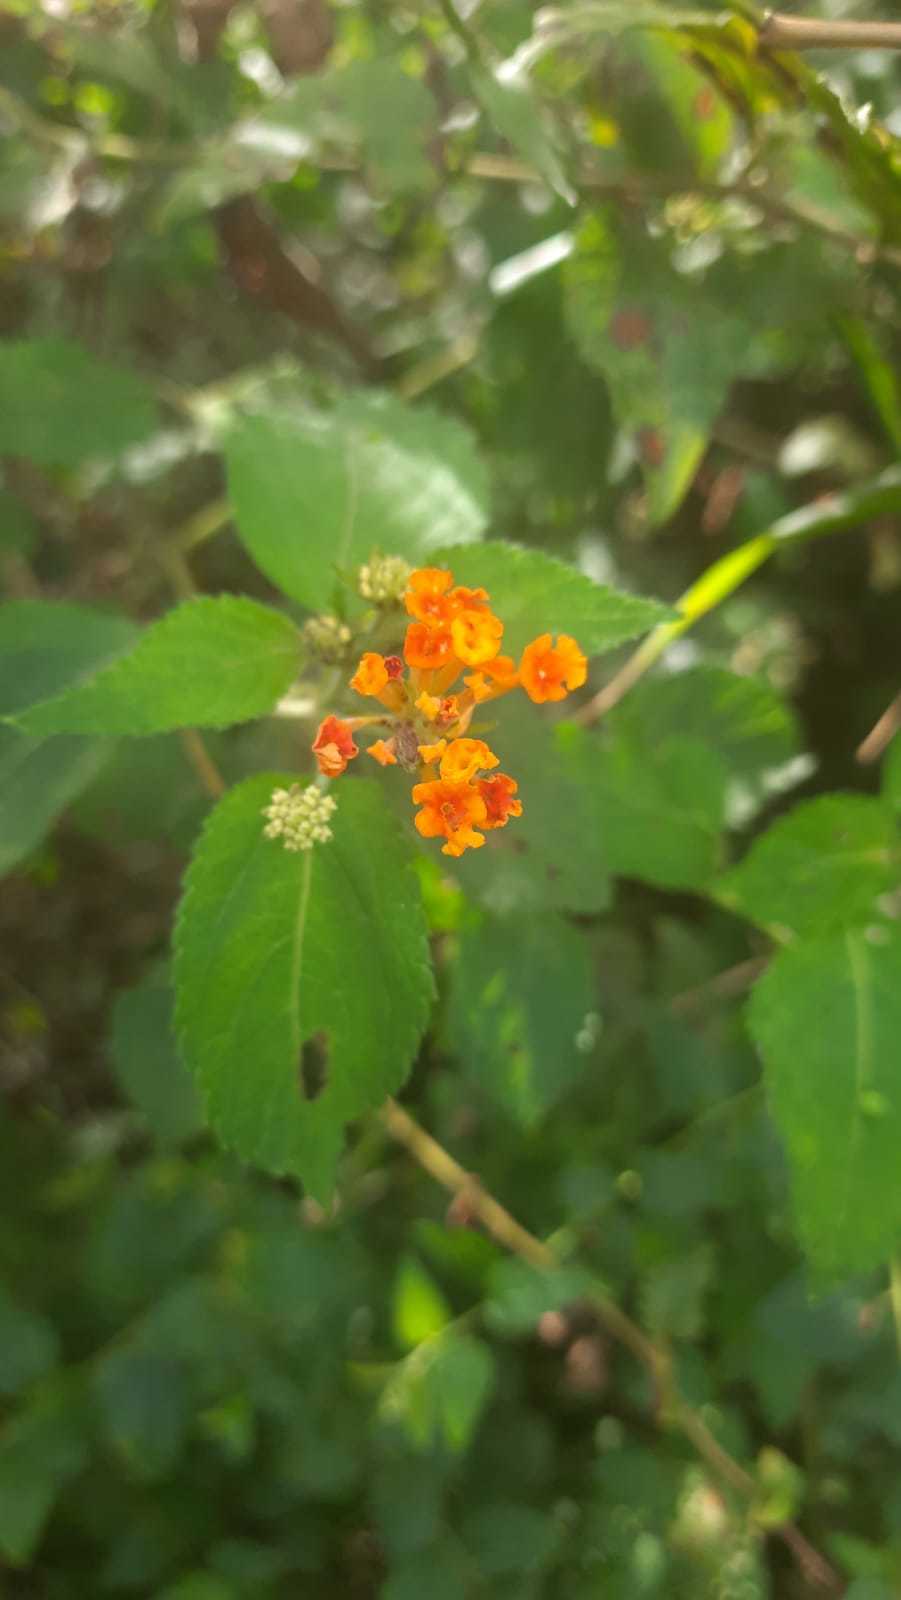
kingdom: Plantae
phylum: Tracheophyta
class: Magnoliopsida
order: Lamiales
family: Verbenaceae
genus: Lantana
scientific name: Lantana camara
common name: Lantana
